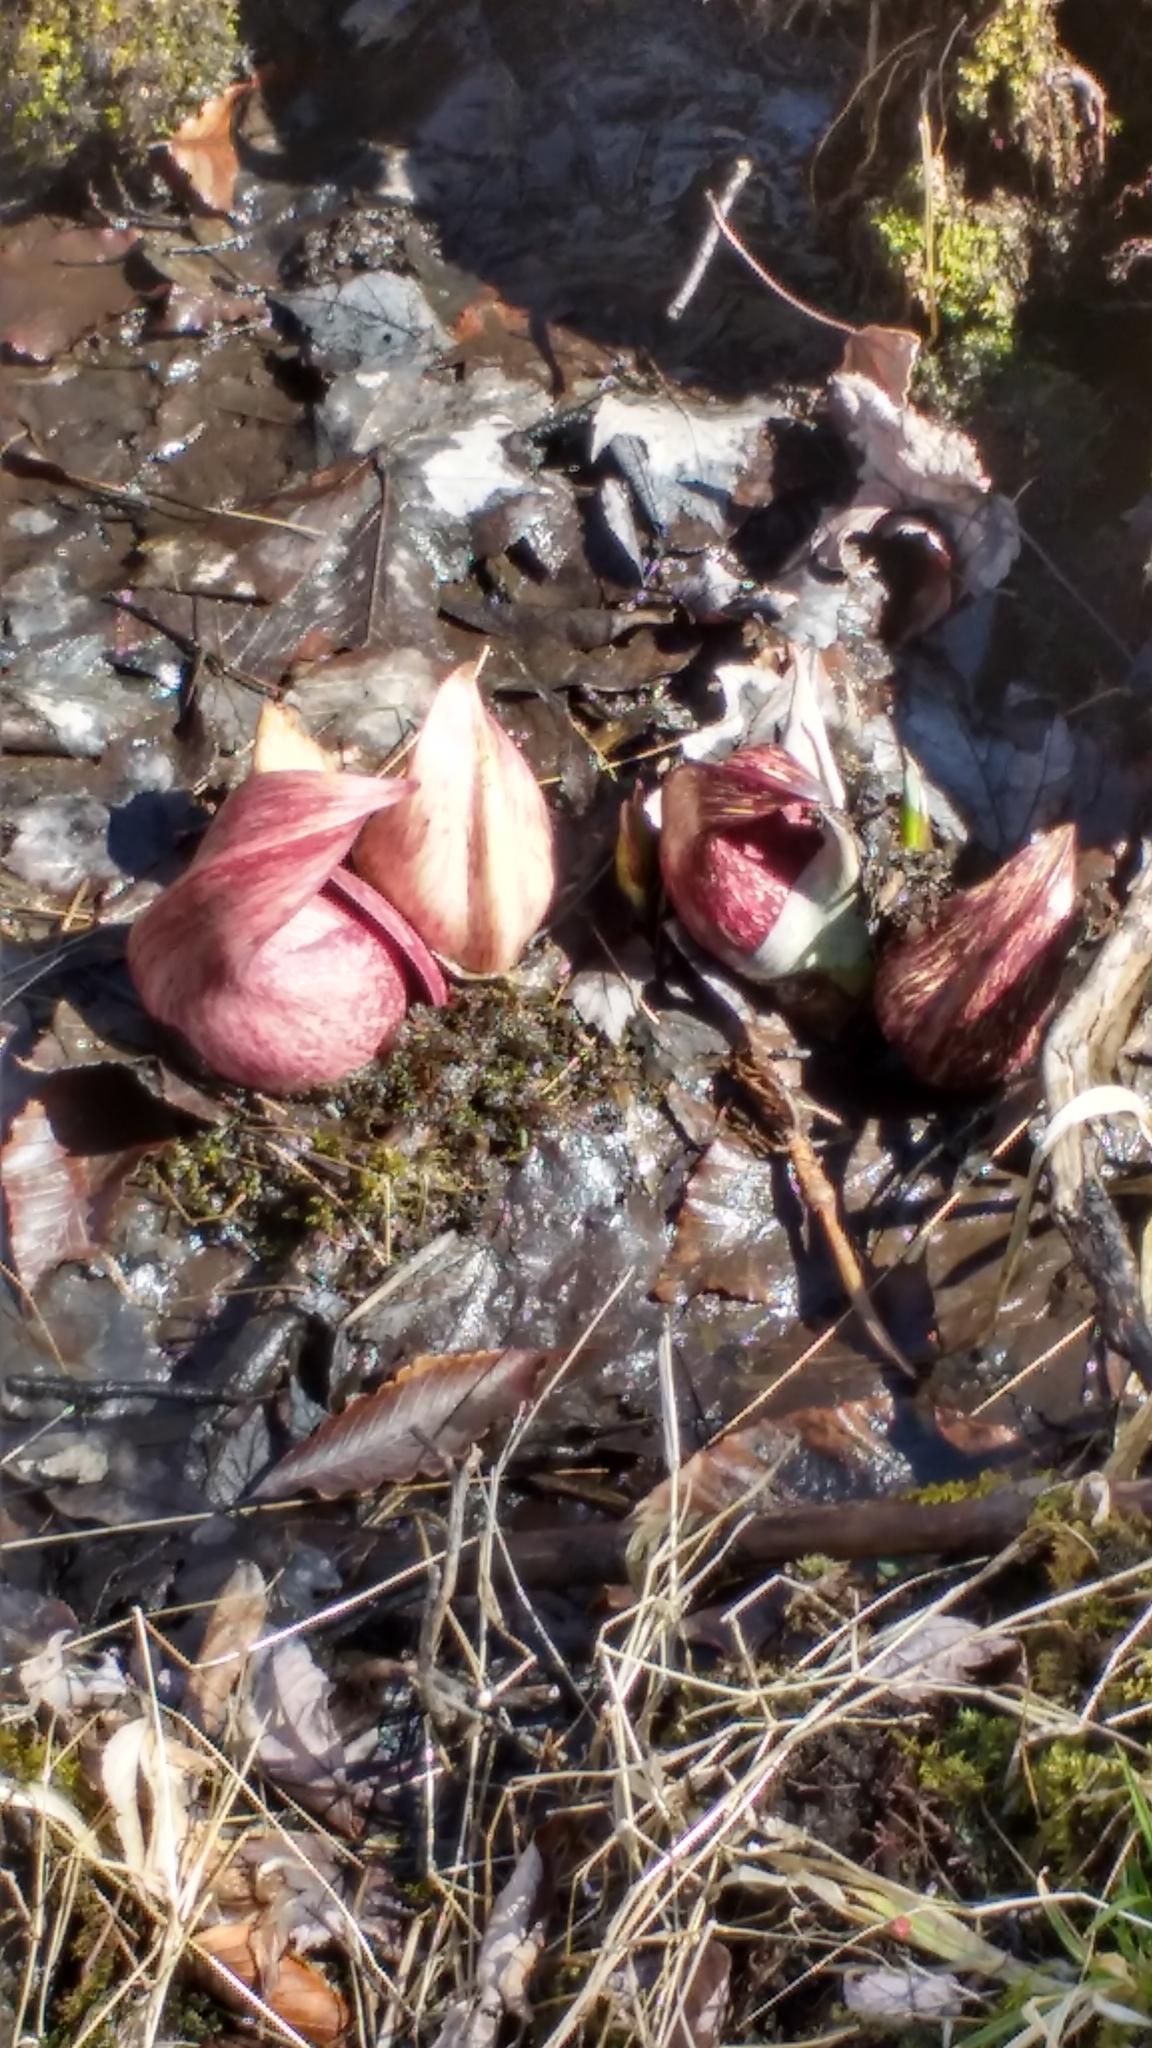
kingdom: Plantae
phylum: Tracheophyta
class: Liliopsida
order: Alismatales
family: Araceae
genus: Symplocarpus
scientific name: Symplocarpus foetidus
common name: Eastern skunk cabbage
